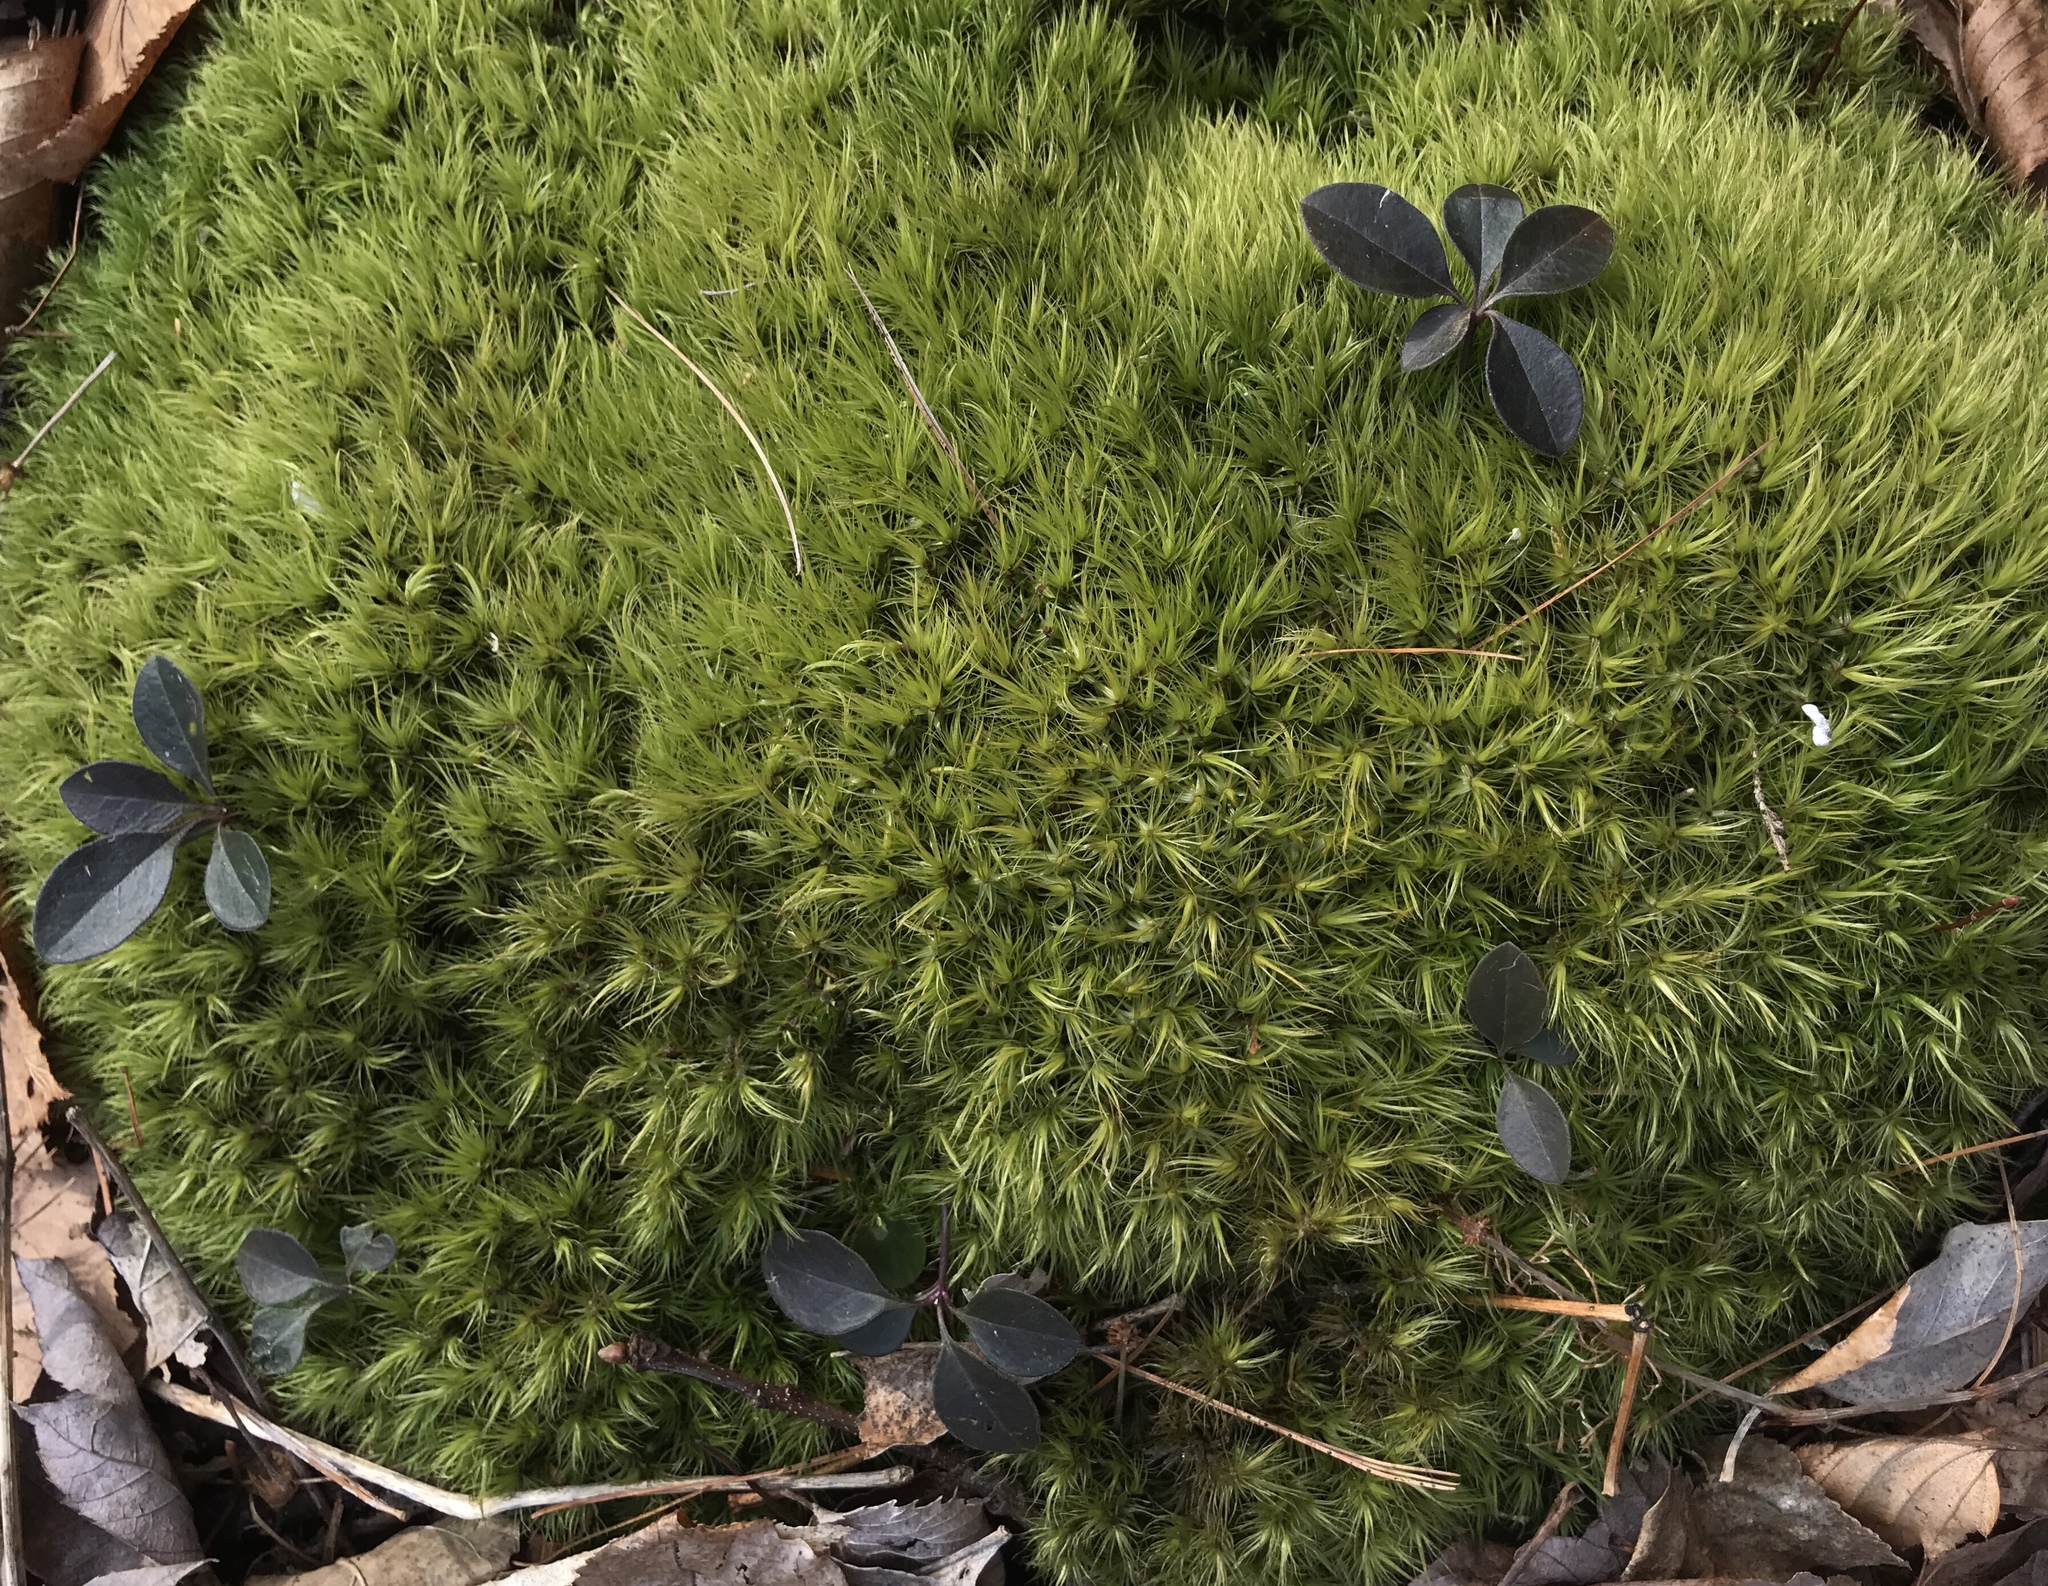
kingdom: Plantae
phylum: Tracheophyta
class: Magnoliopsida
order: Ericales
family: Ericaceae
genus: Gaultheria
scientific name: Gaultheria procumbens
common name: Checkerberry
